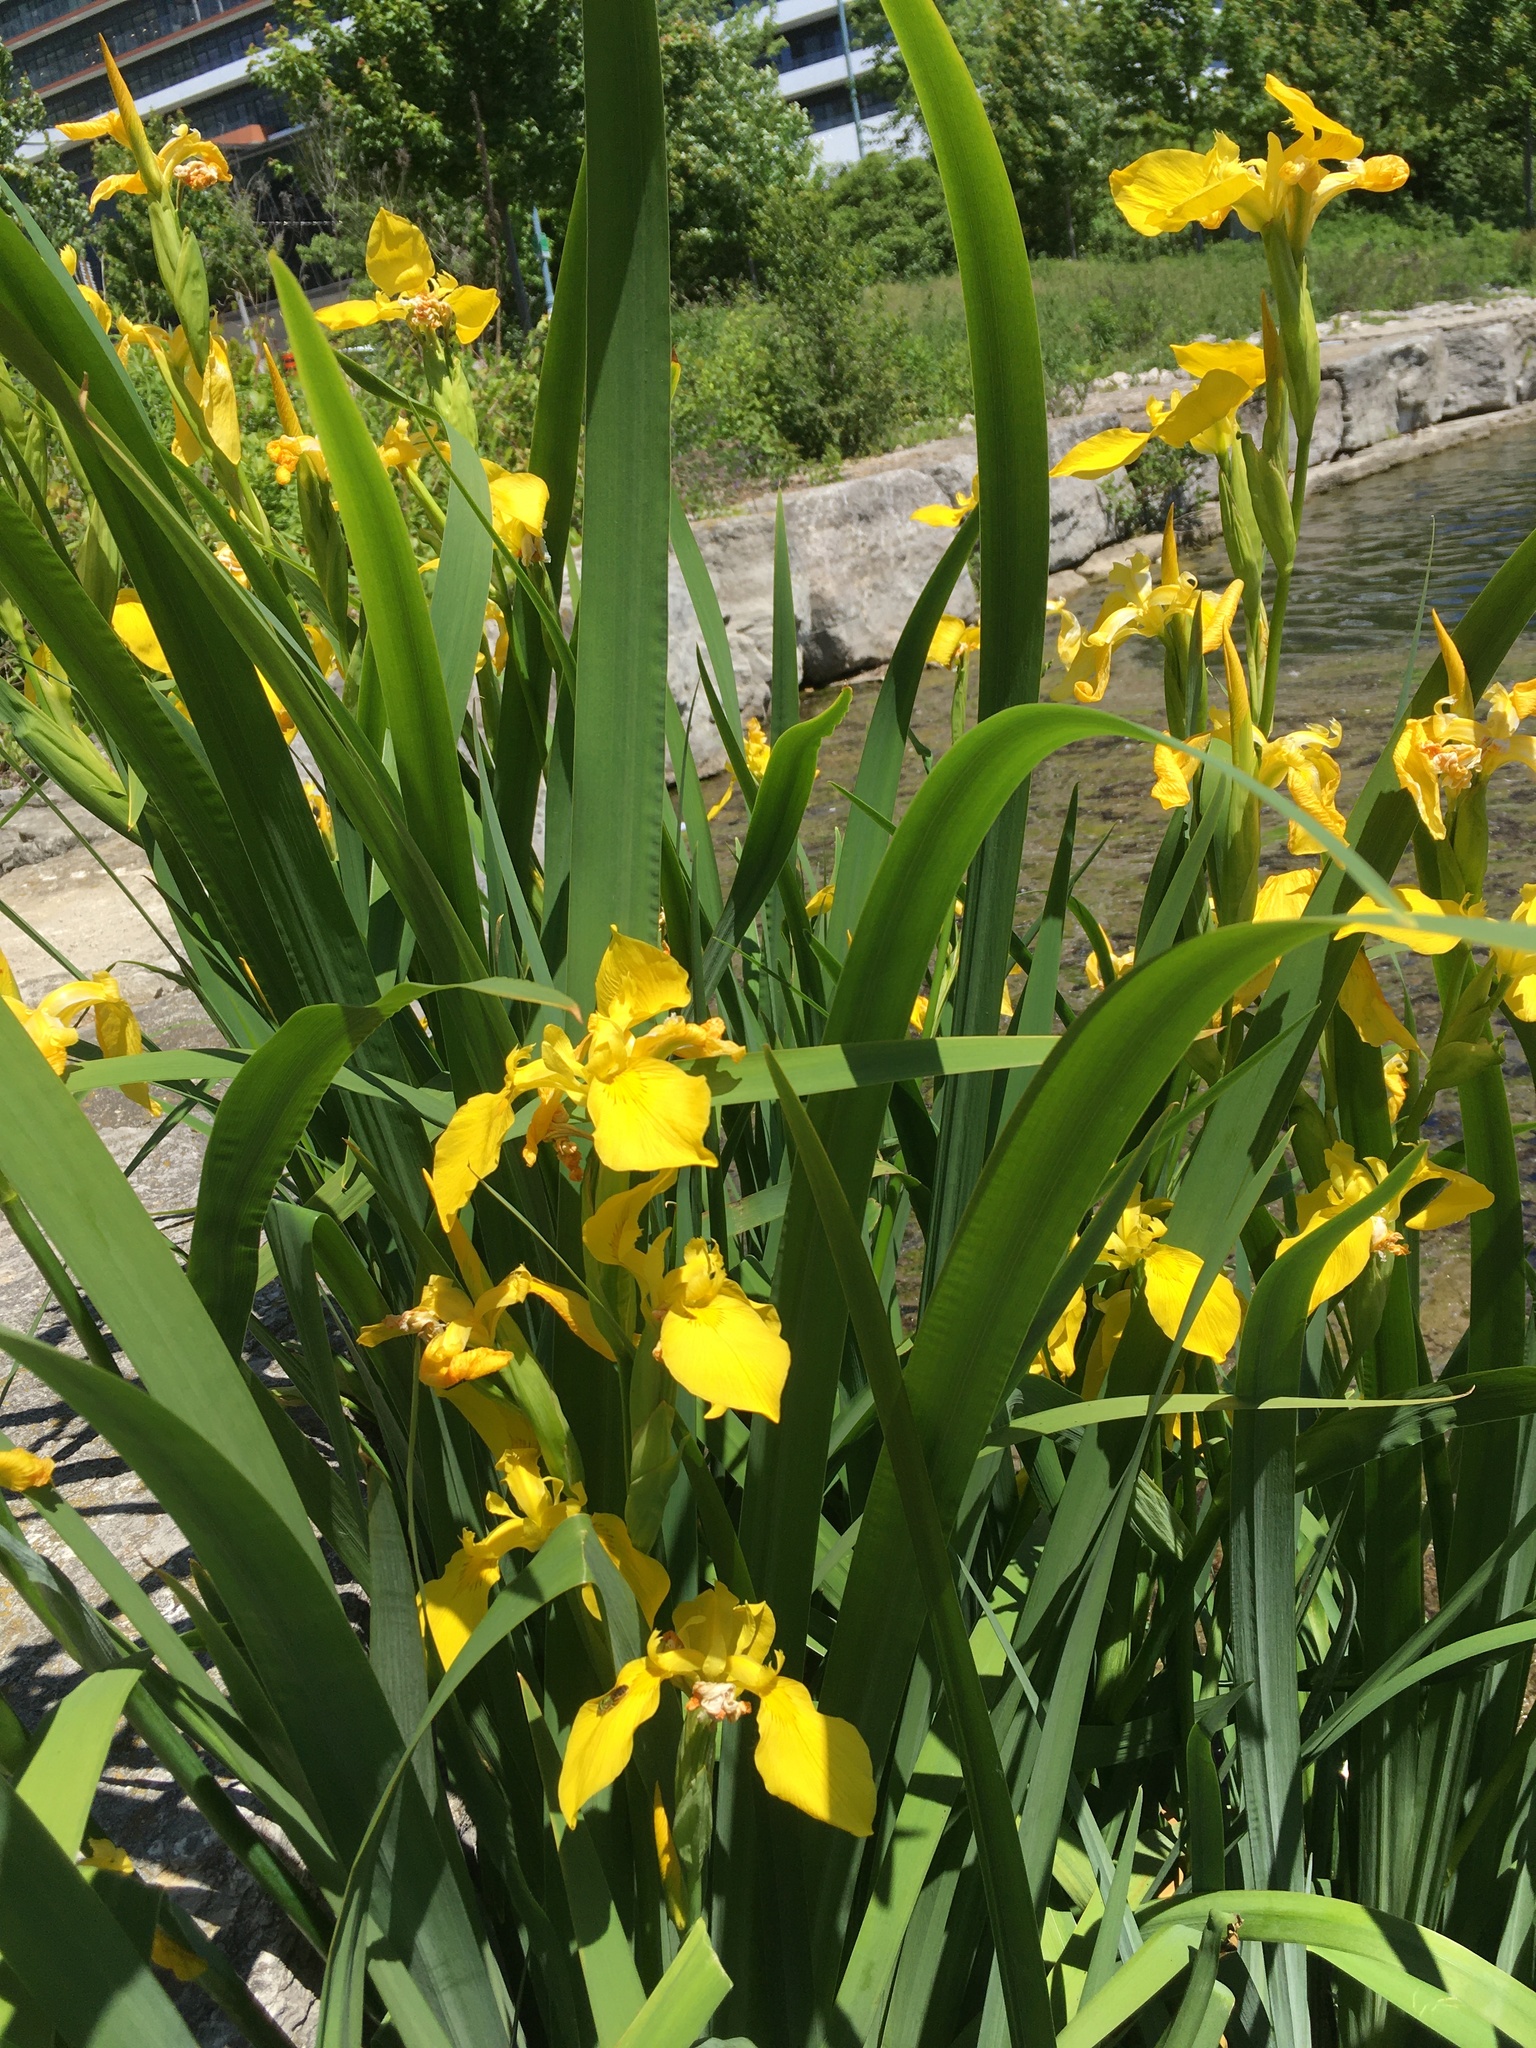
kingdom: Plantae
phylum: Tracheophyta
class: Liliopsida
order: Asparagales
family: Iridaceae
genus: Iris
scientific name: Iris pseudacorus
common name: Yellow flag
